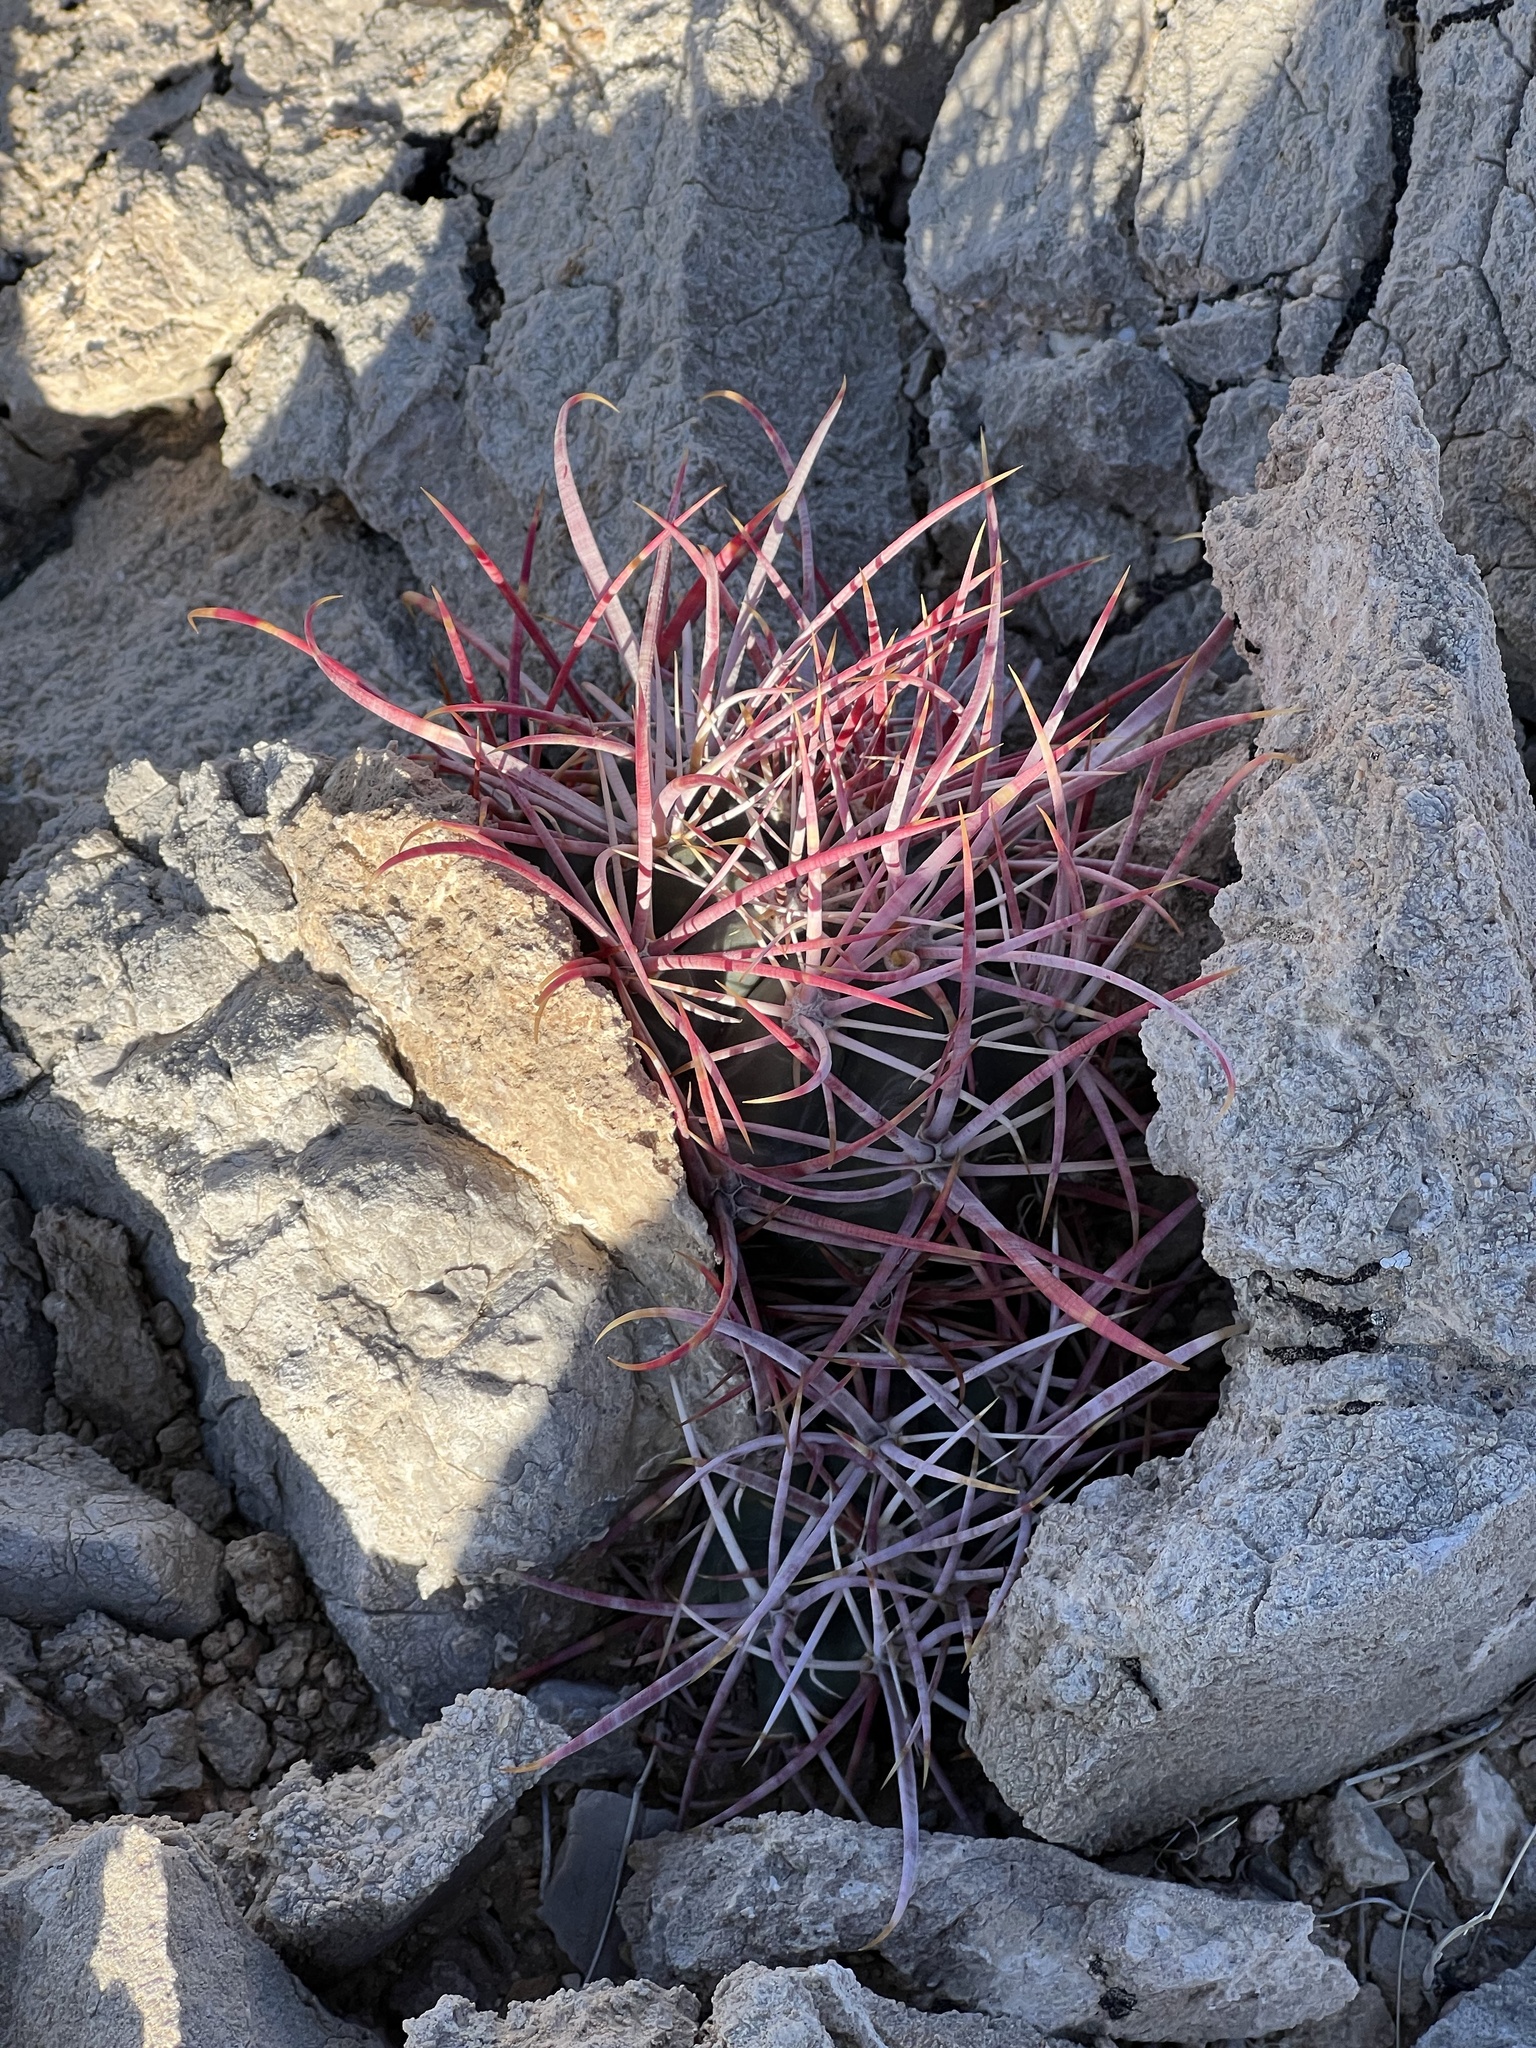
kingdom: Plantae
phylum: Tracheophyta
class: Magnoliopsida
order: Caryophyllales
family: Cactaceae
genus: Ferocactus
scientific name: Ferocactus cylindraceus
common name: California barrel cactus
